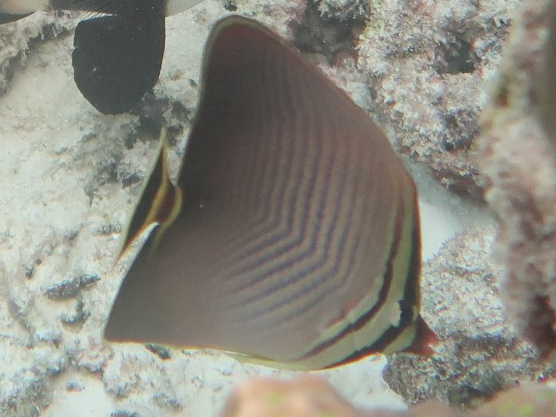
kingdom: Animalia
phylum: Chordata
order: Perciformes
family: Chaetodontidae
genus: Chaetodon
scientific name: Chaetodon triangulum
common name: Triangular butterflyfish
